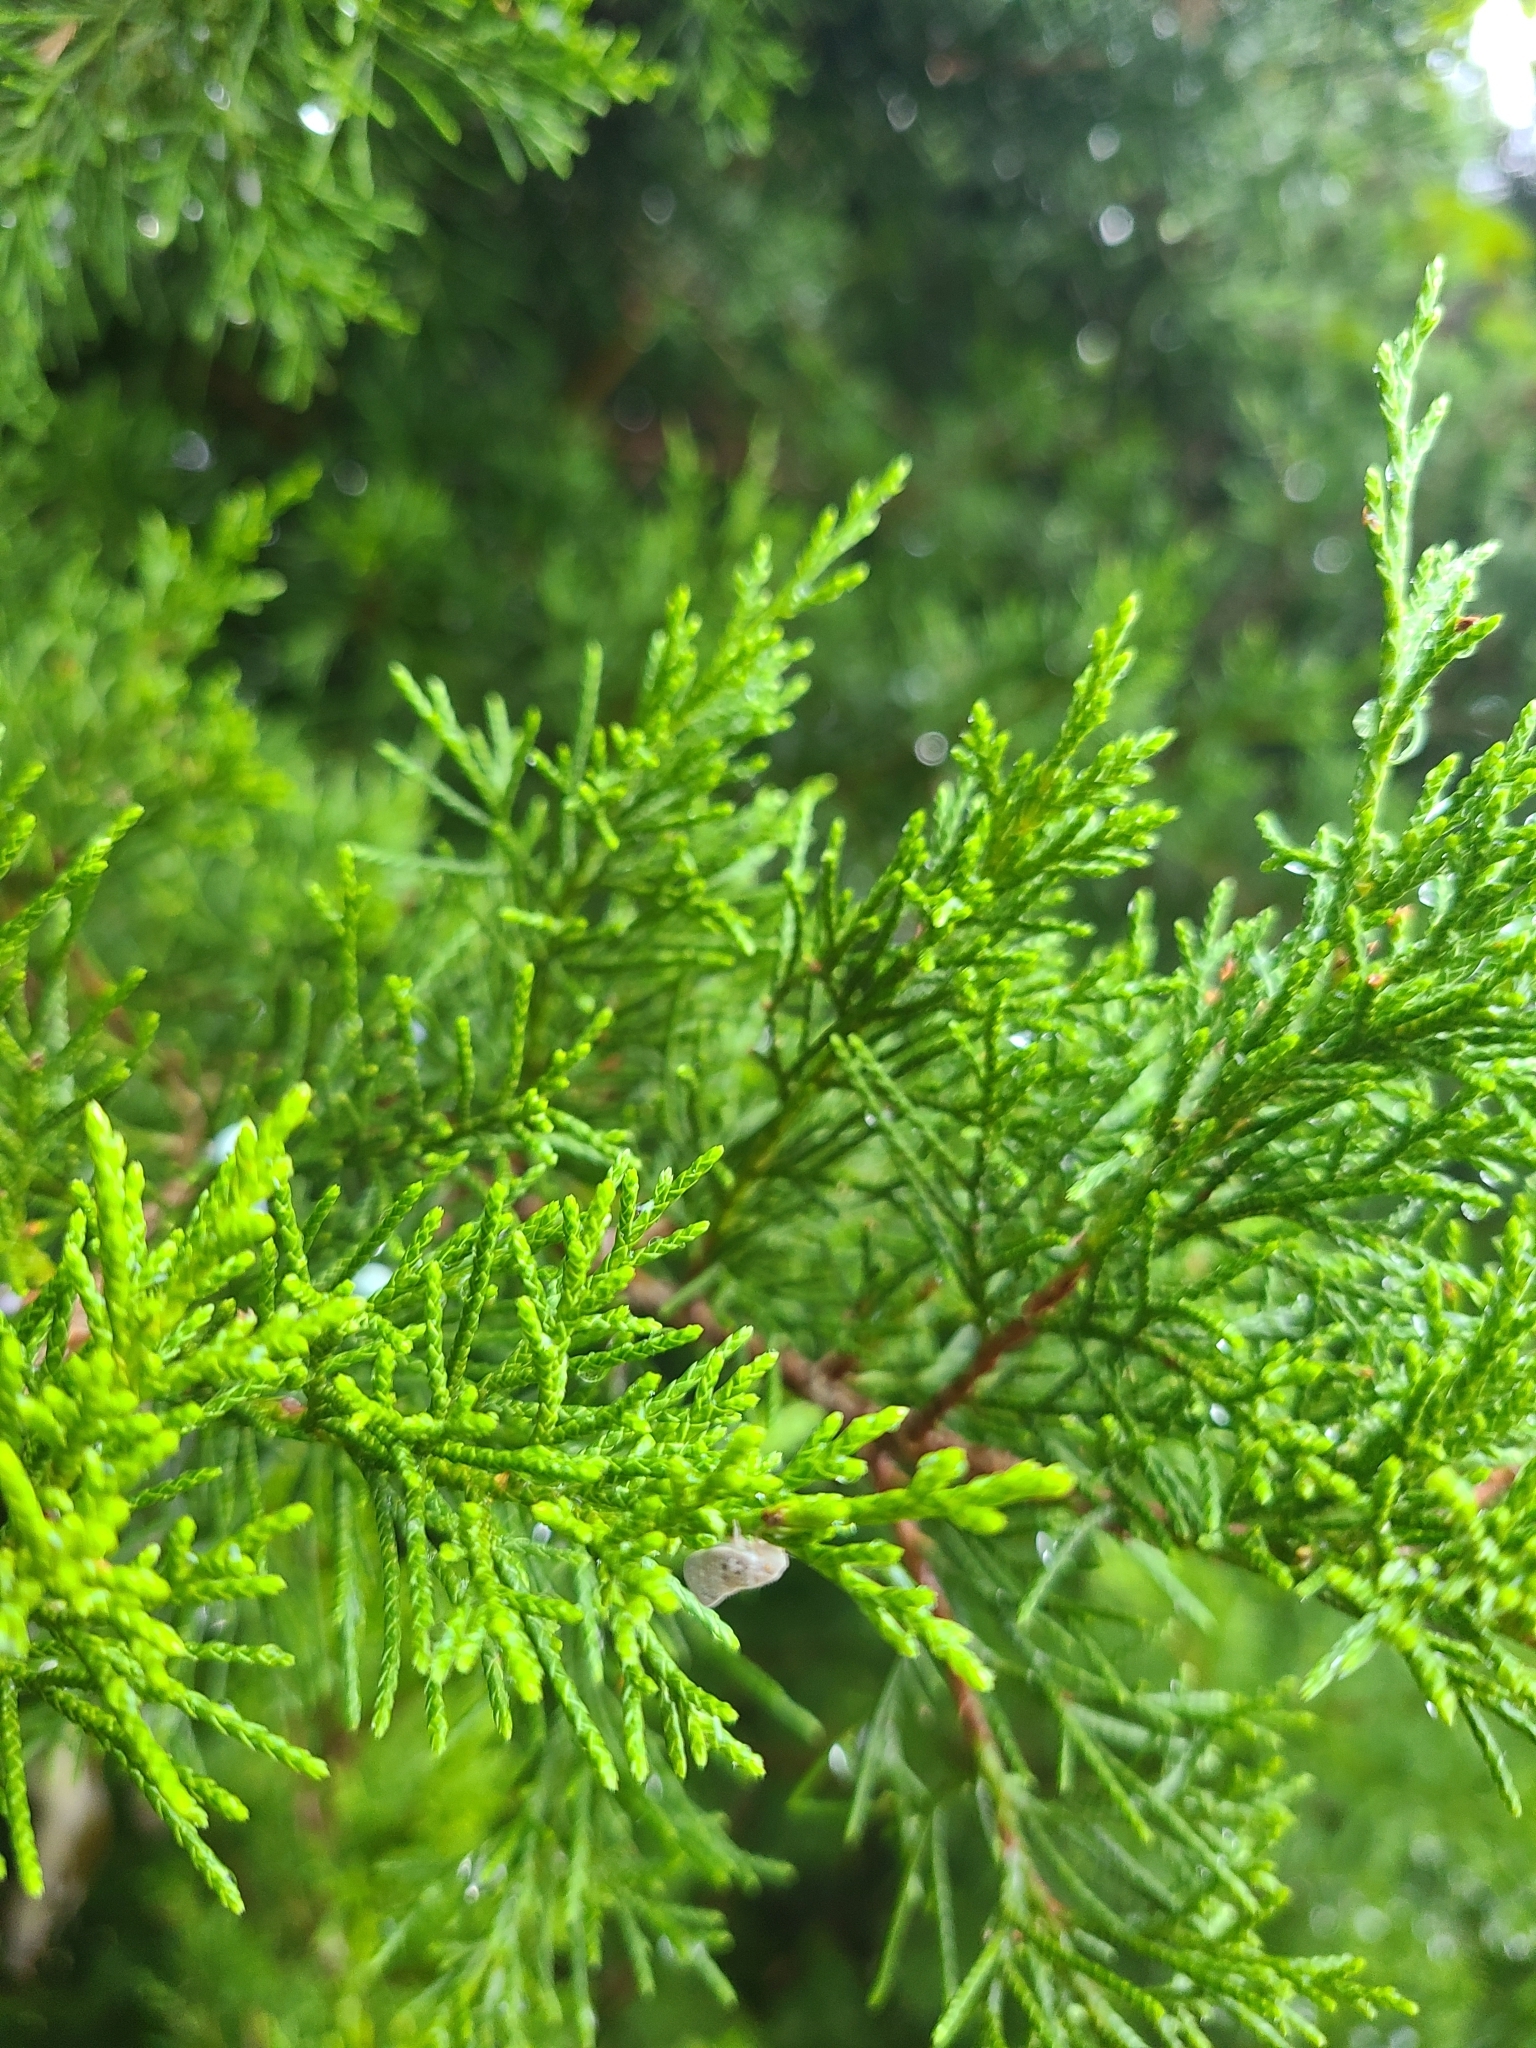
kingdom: Plantae
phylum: Tracheophyta
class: Pinopsida
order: Pinales
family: Cupressaceae
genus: Juniperus
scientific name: Juniperus virginiana
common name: Red juniper
